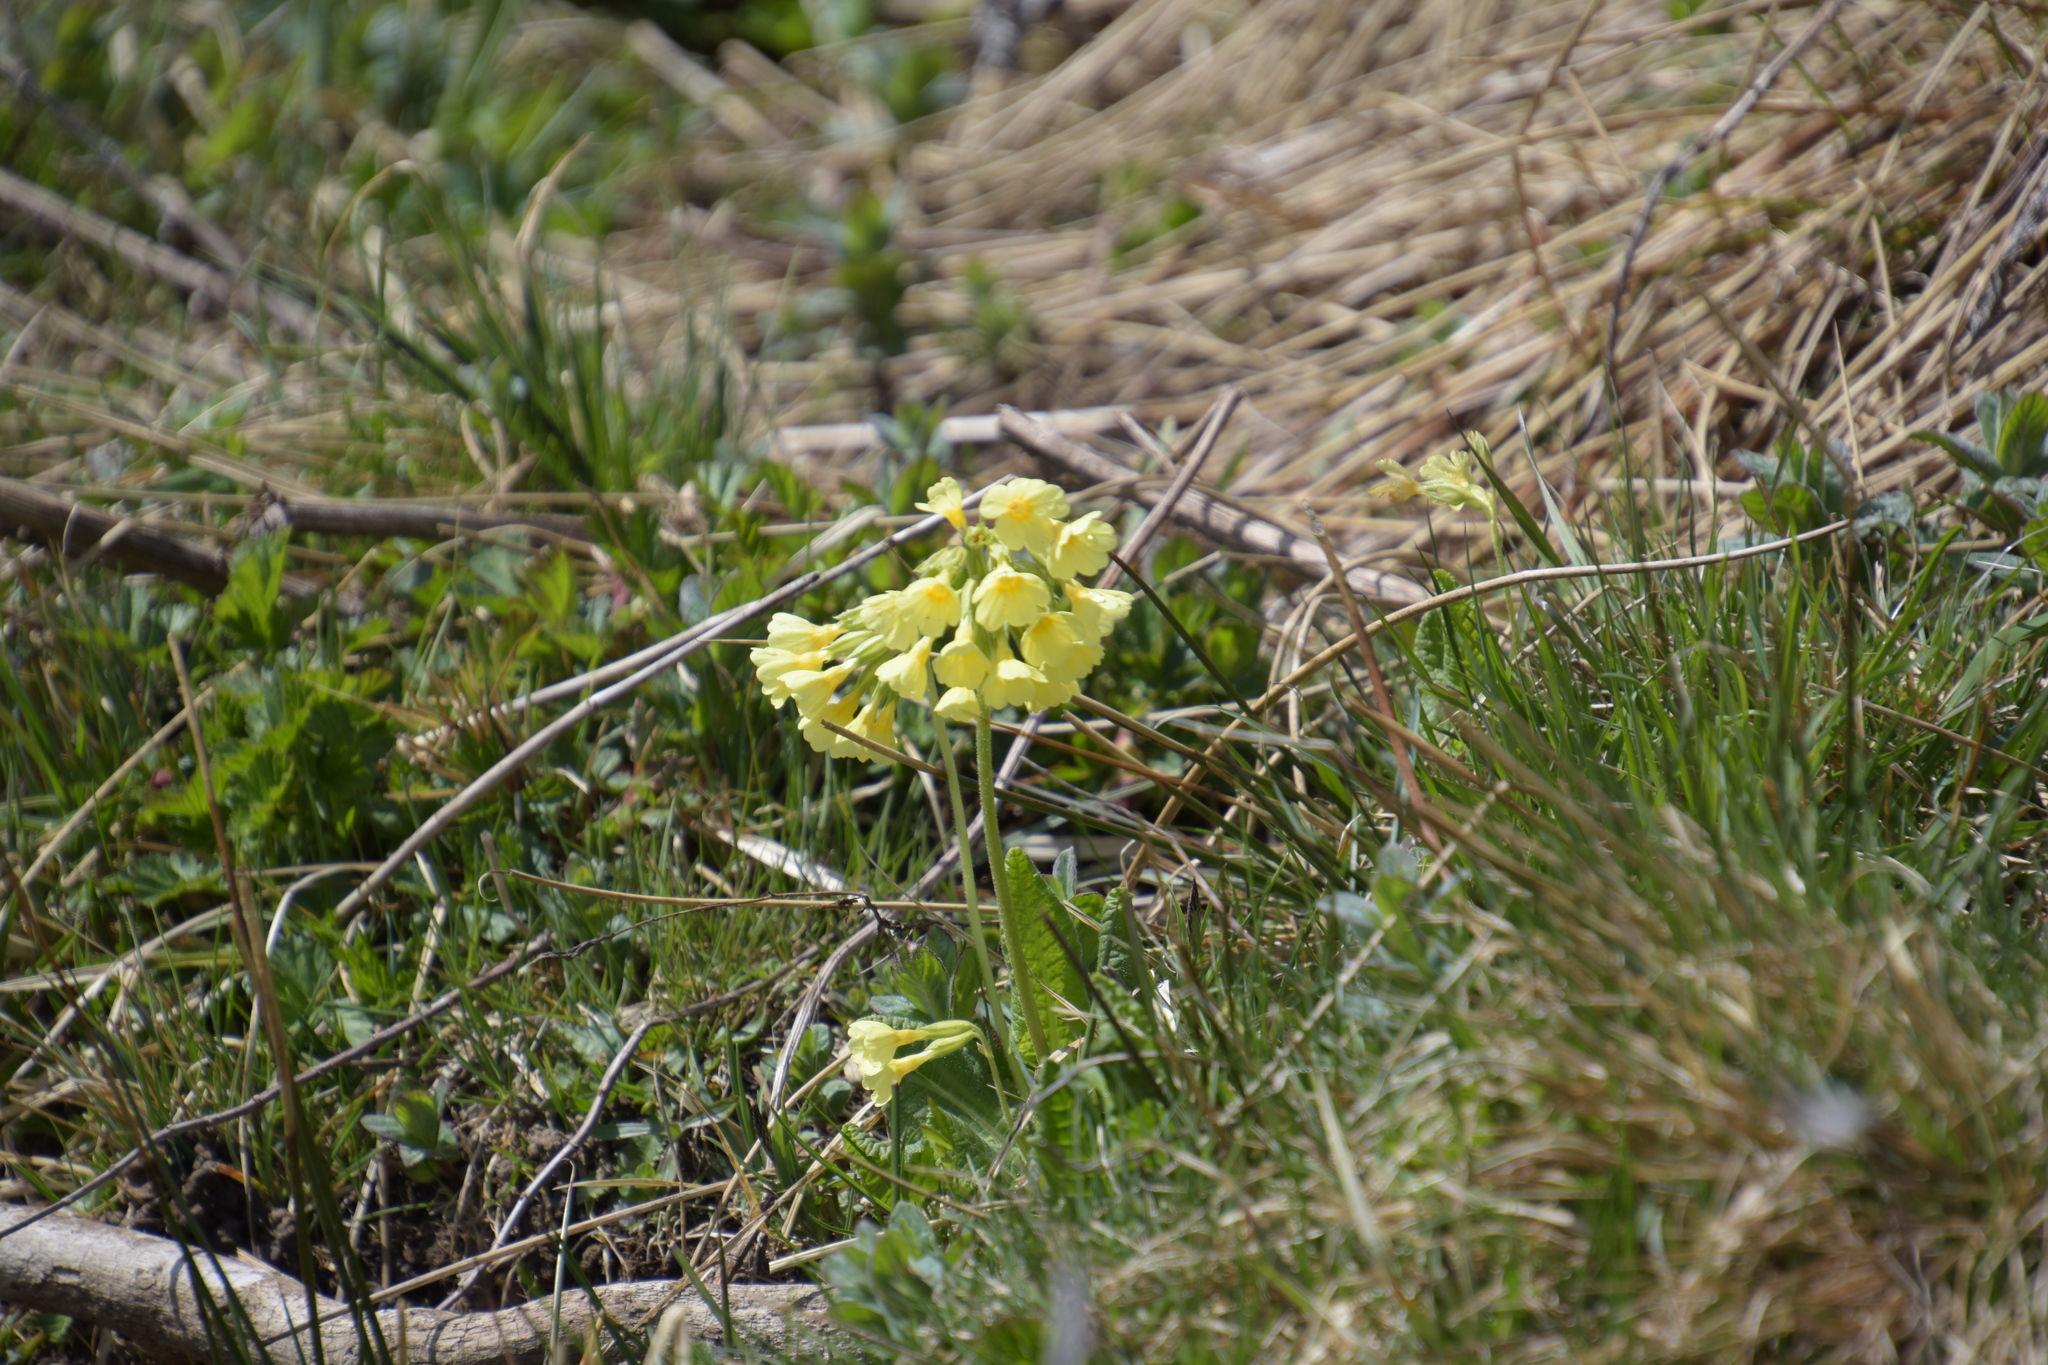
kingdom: Plantae
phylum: Tracheophyta
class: Magnoliopsida
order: Ericales
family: Primulaceae
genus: Primula
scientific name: Primula elatior
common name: Oxlip
